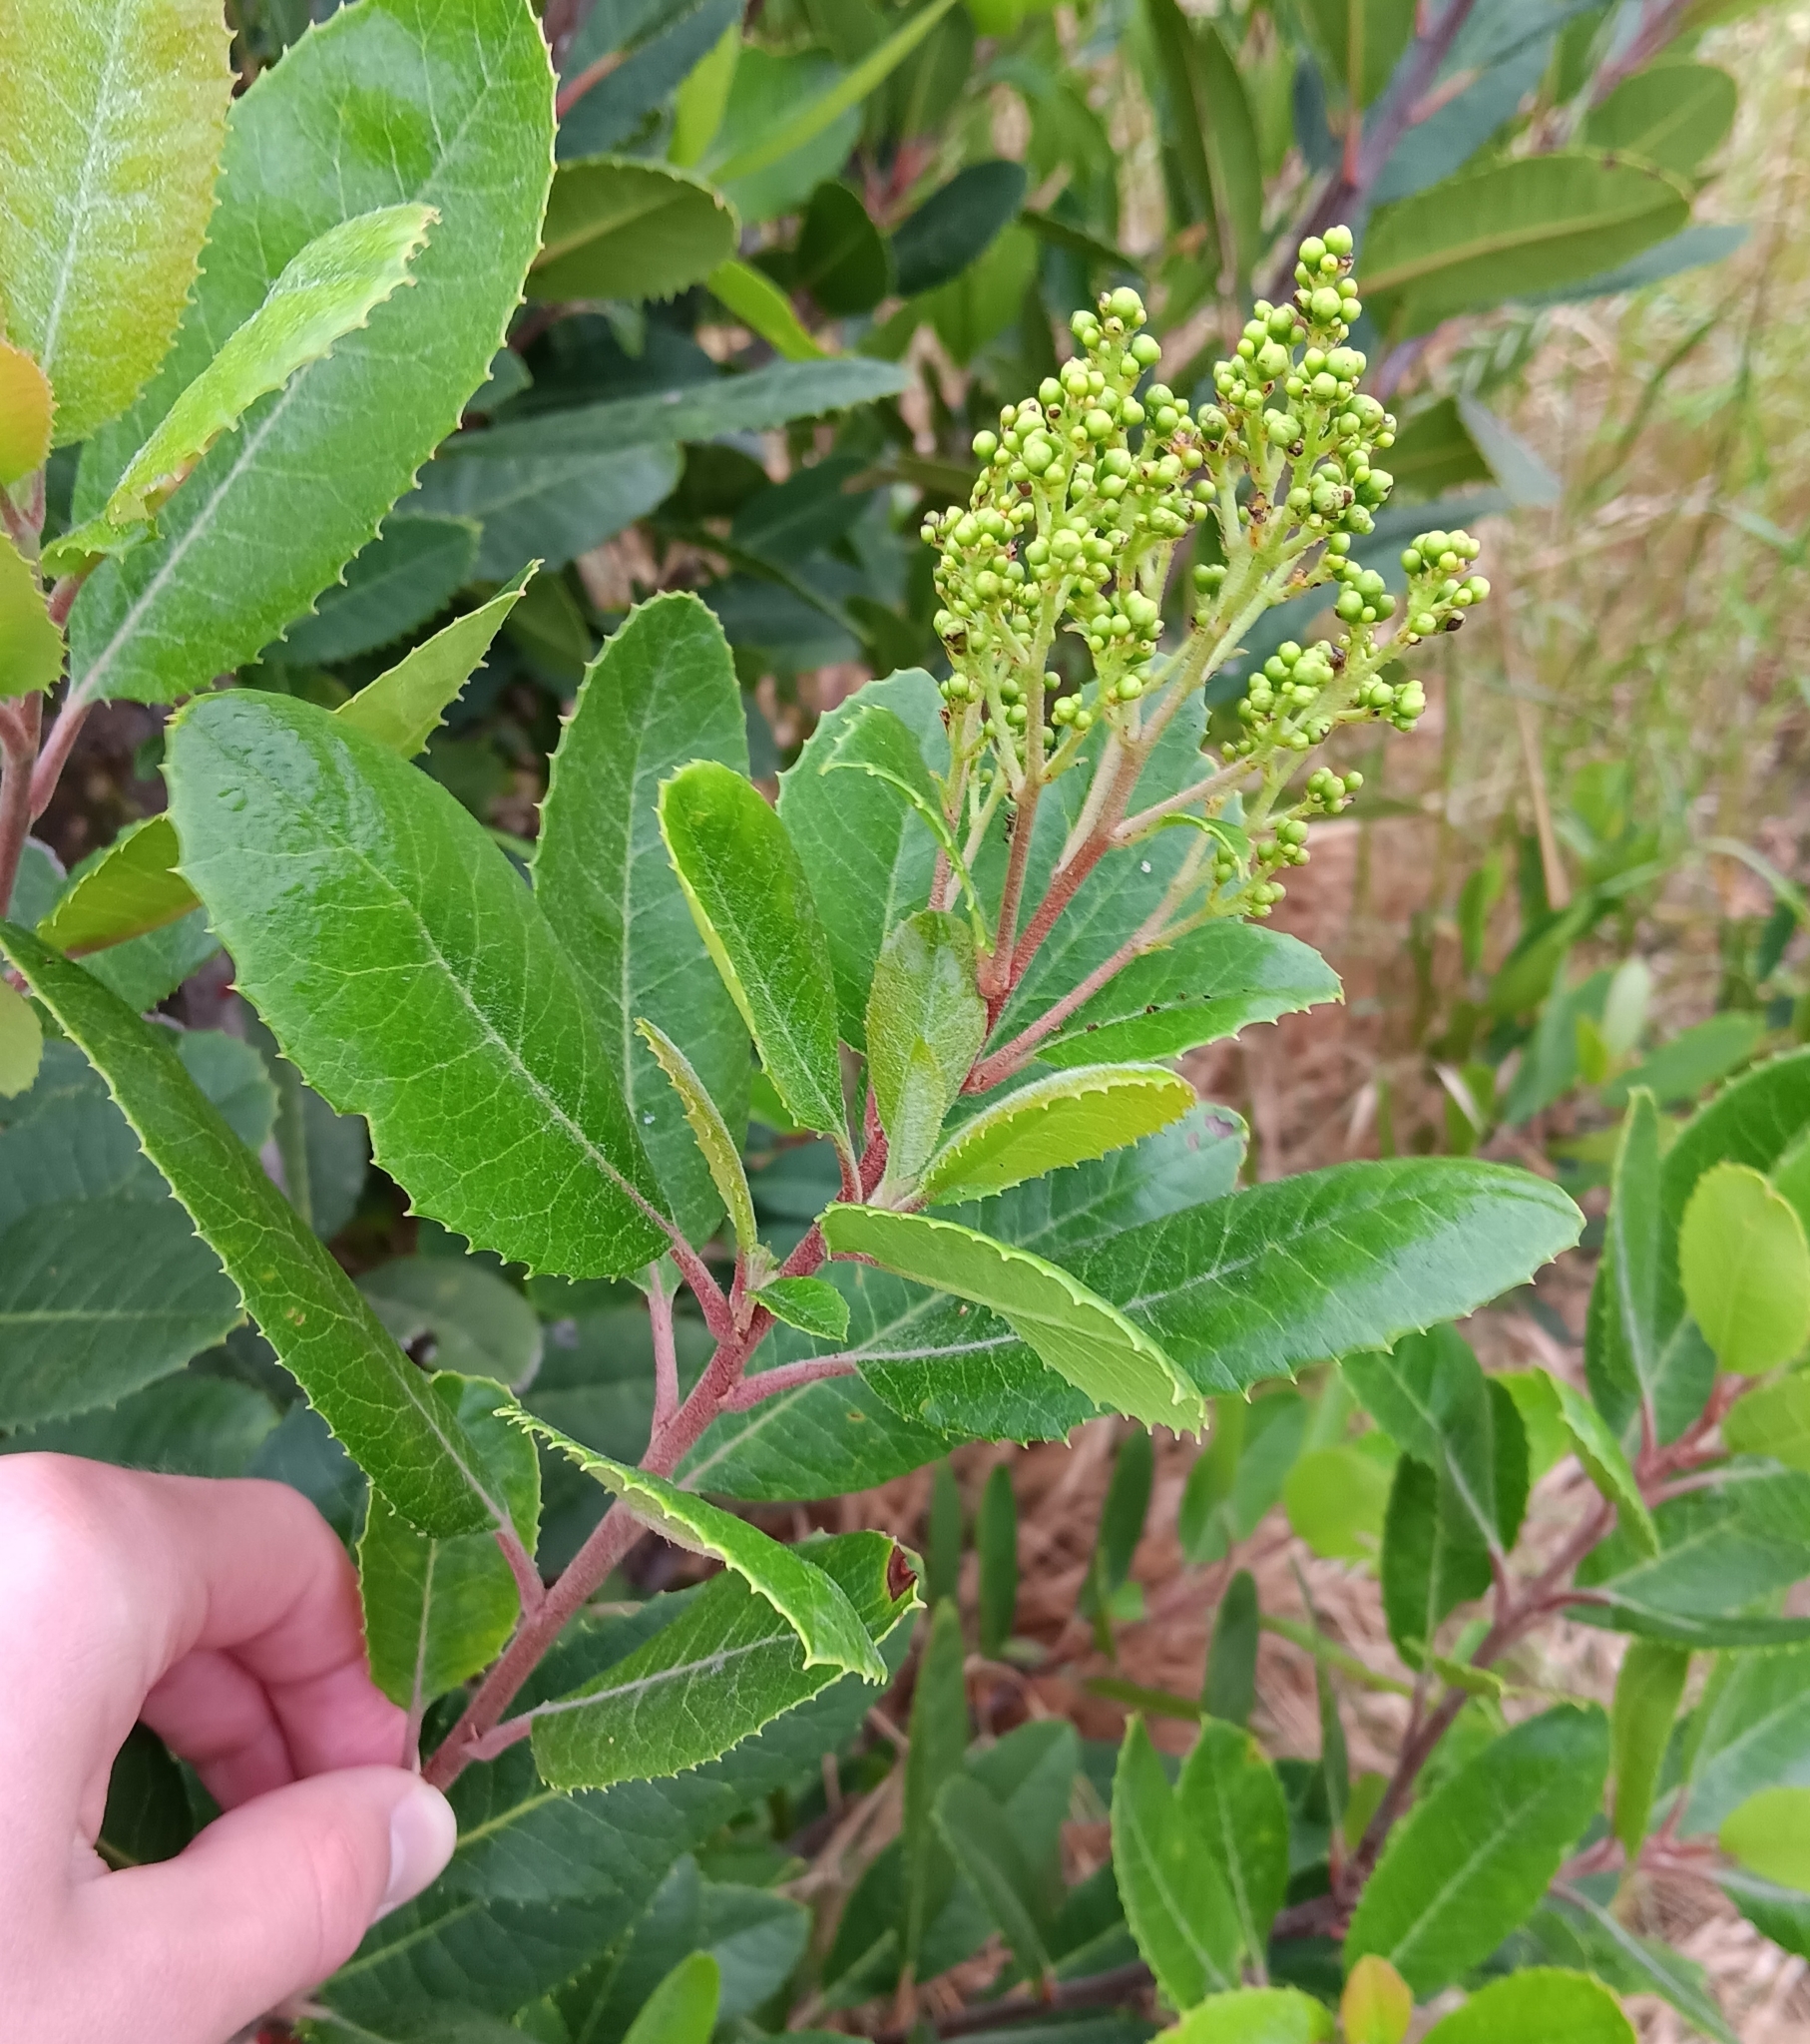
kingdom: Plantae
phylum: Tracheophyta
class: Magnoliopsida
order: Rosales
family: Rosaceae
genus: Heteromeles
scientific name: Heteromeles arbutifolia
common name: California-holly
